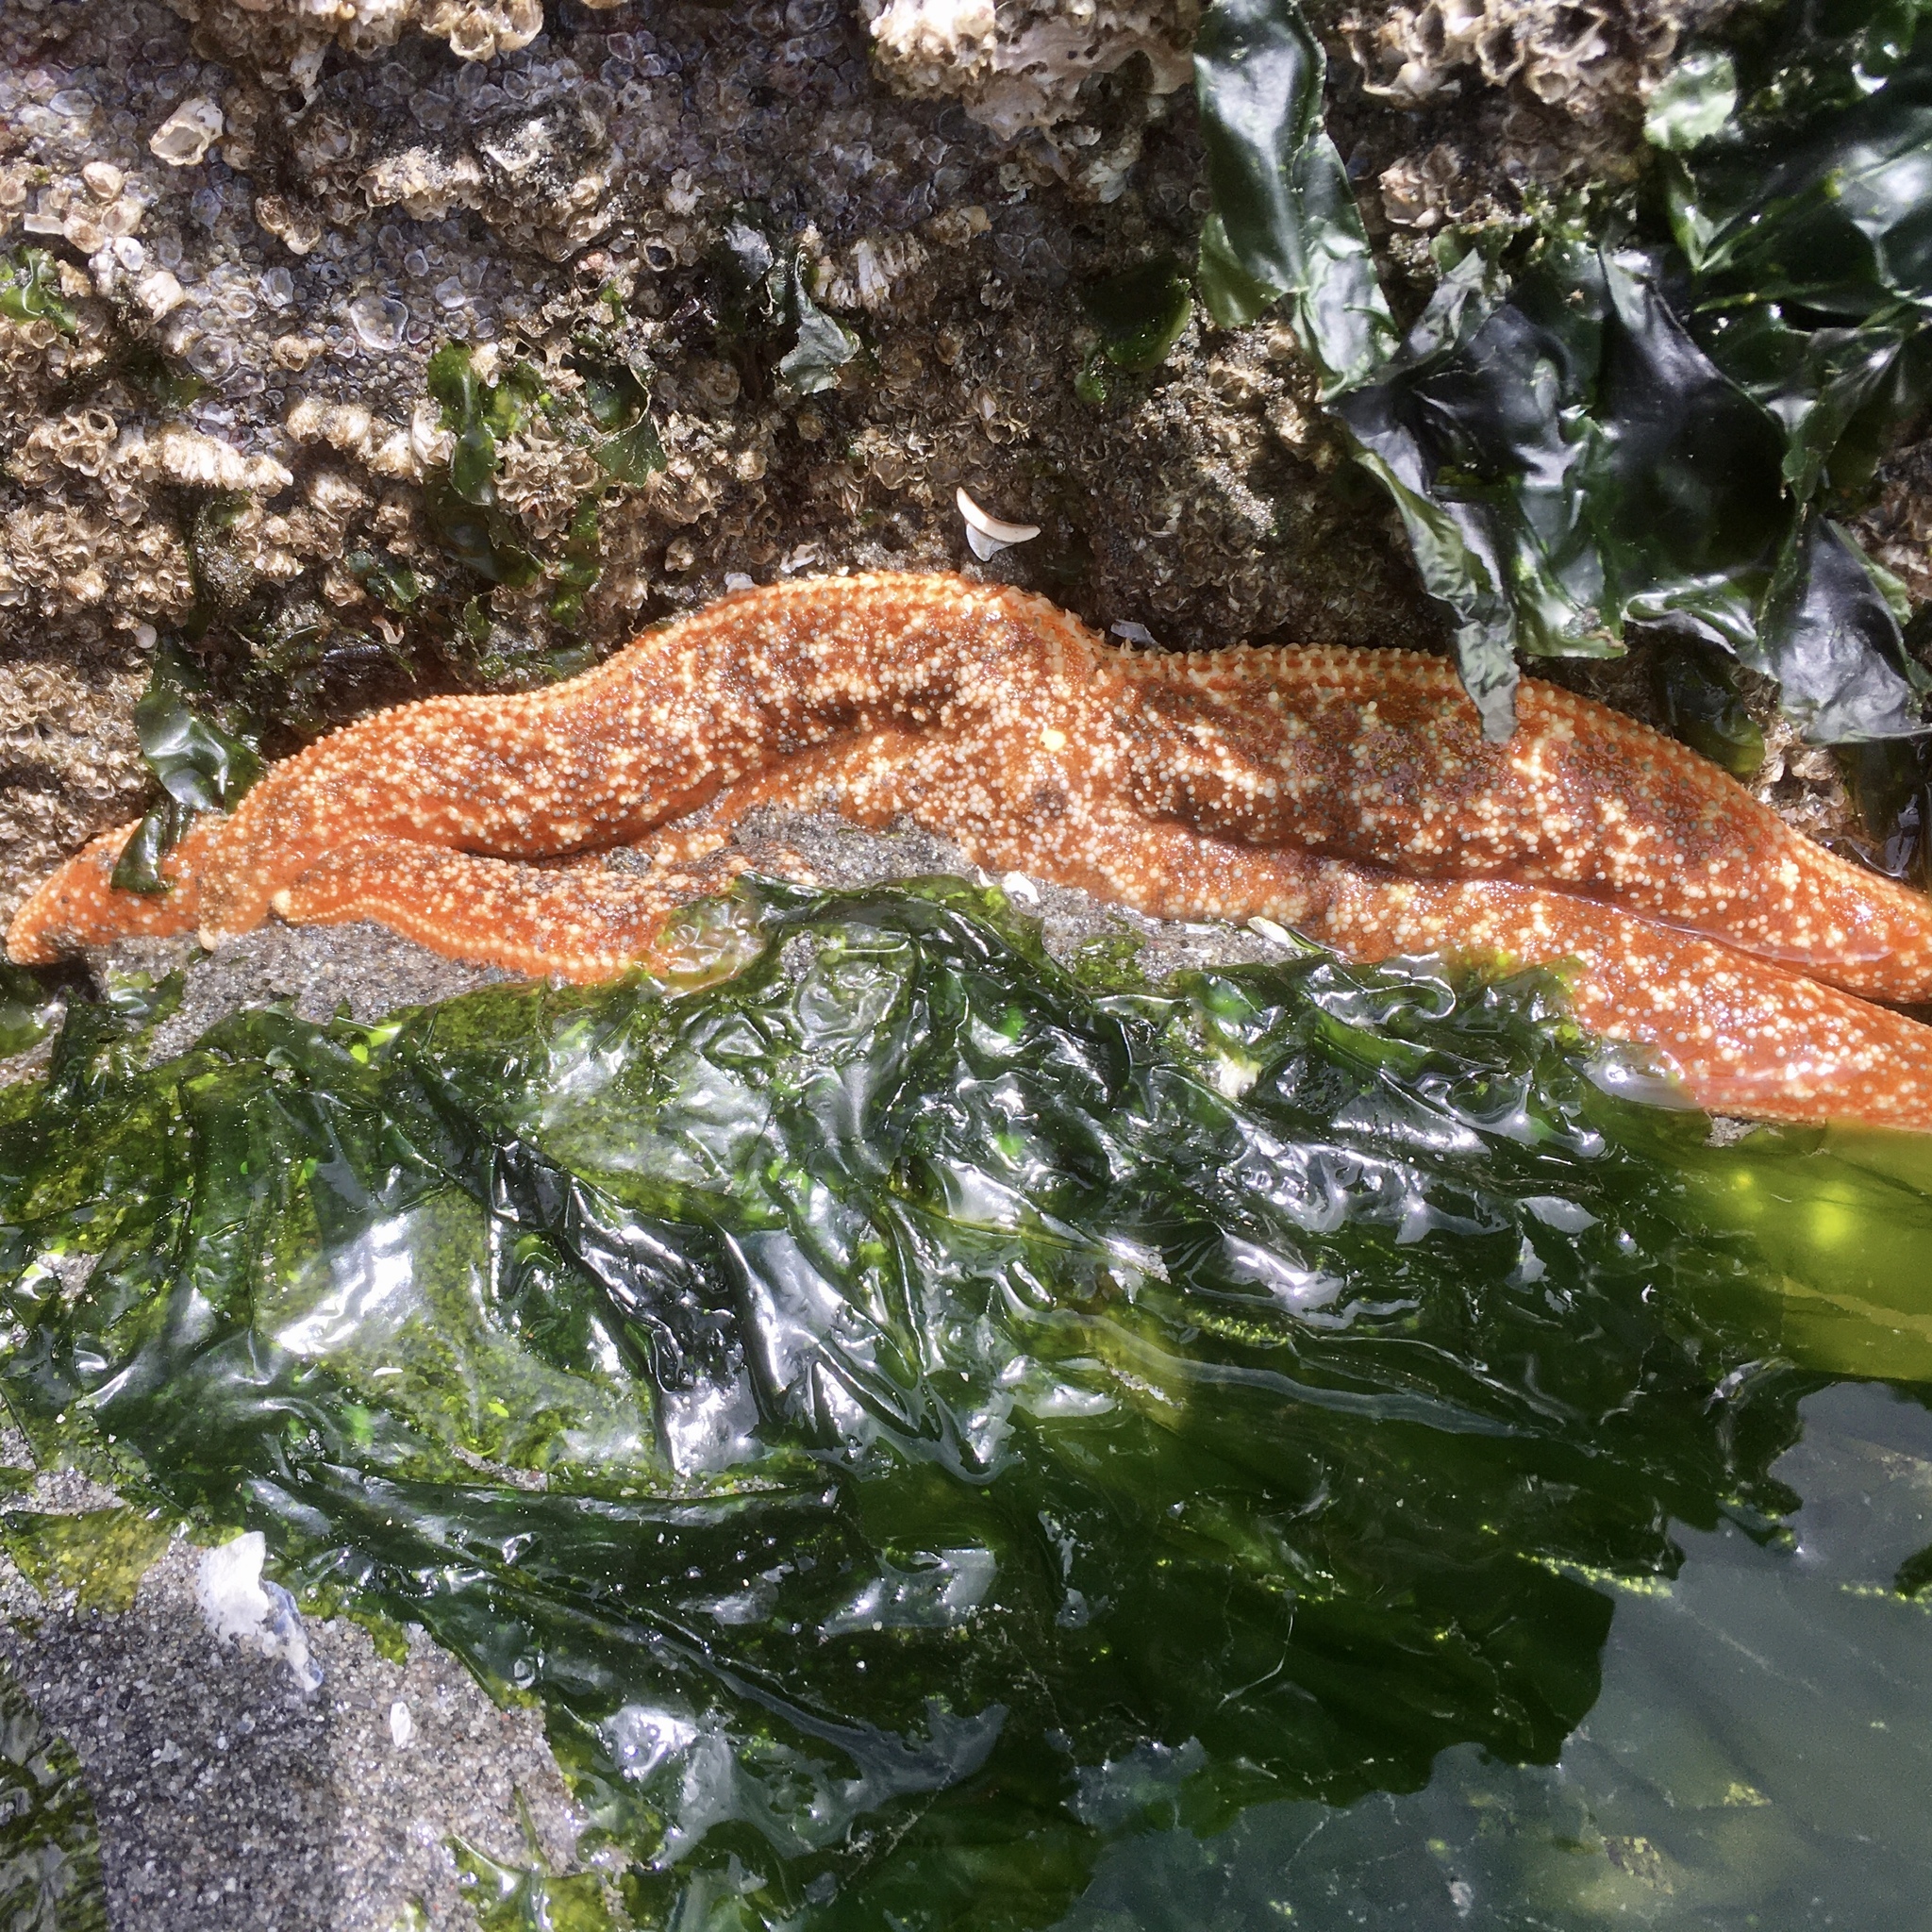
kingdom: Animalia
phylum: Echinodermata
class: Asteroidea
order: Forcipulatida
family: Asteriidae
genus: Evasterias
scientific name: Evasterias troschelii
